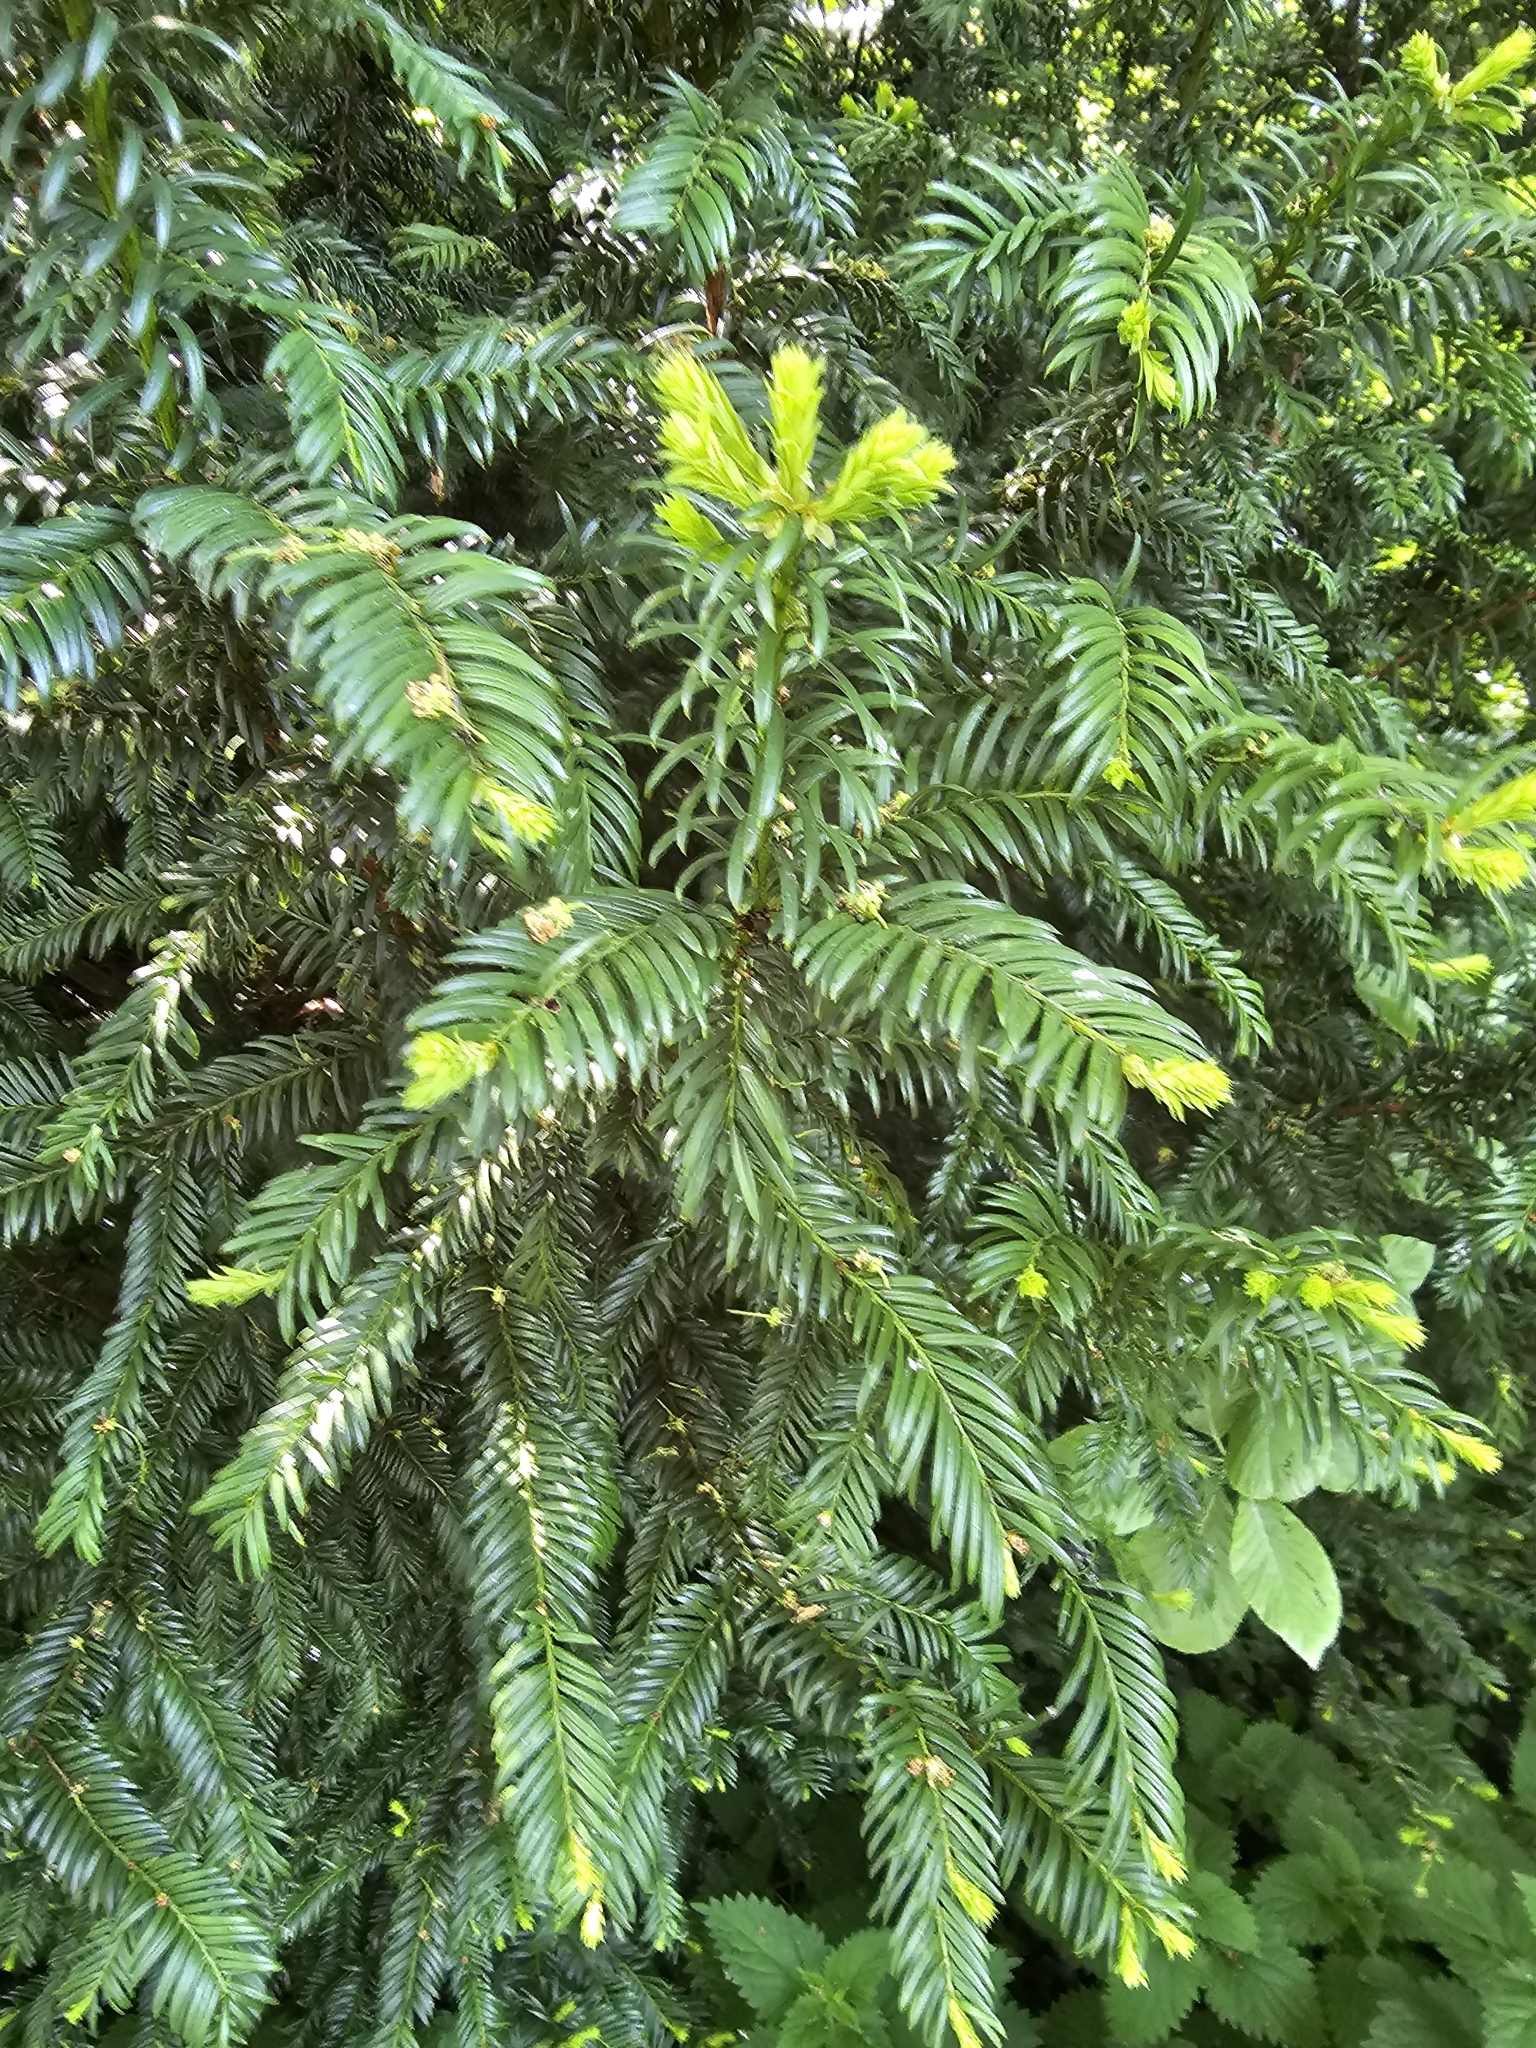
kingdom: Plantae
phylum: Tracheophyta
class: Pinopsida
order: Pinales
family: Taxaceae
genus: Taxus
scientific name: Taxus baccata
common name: Yew
